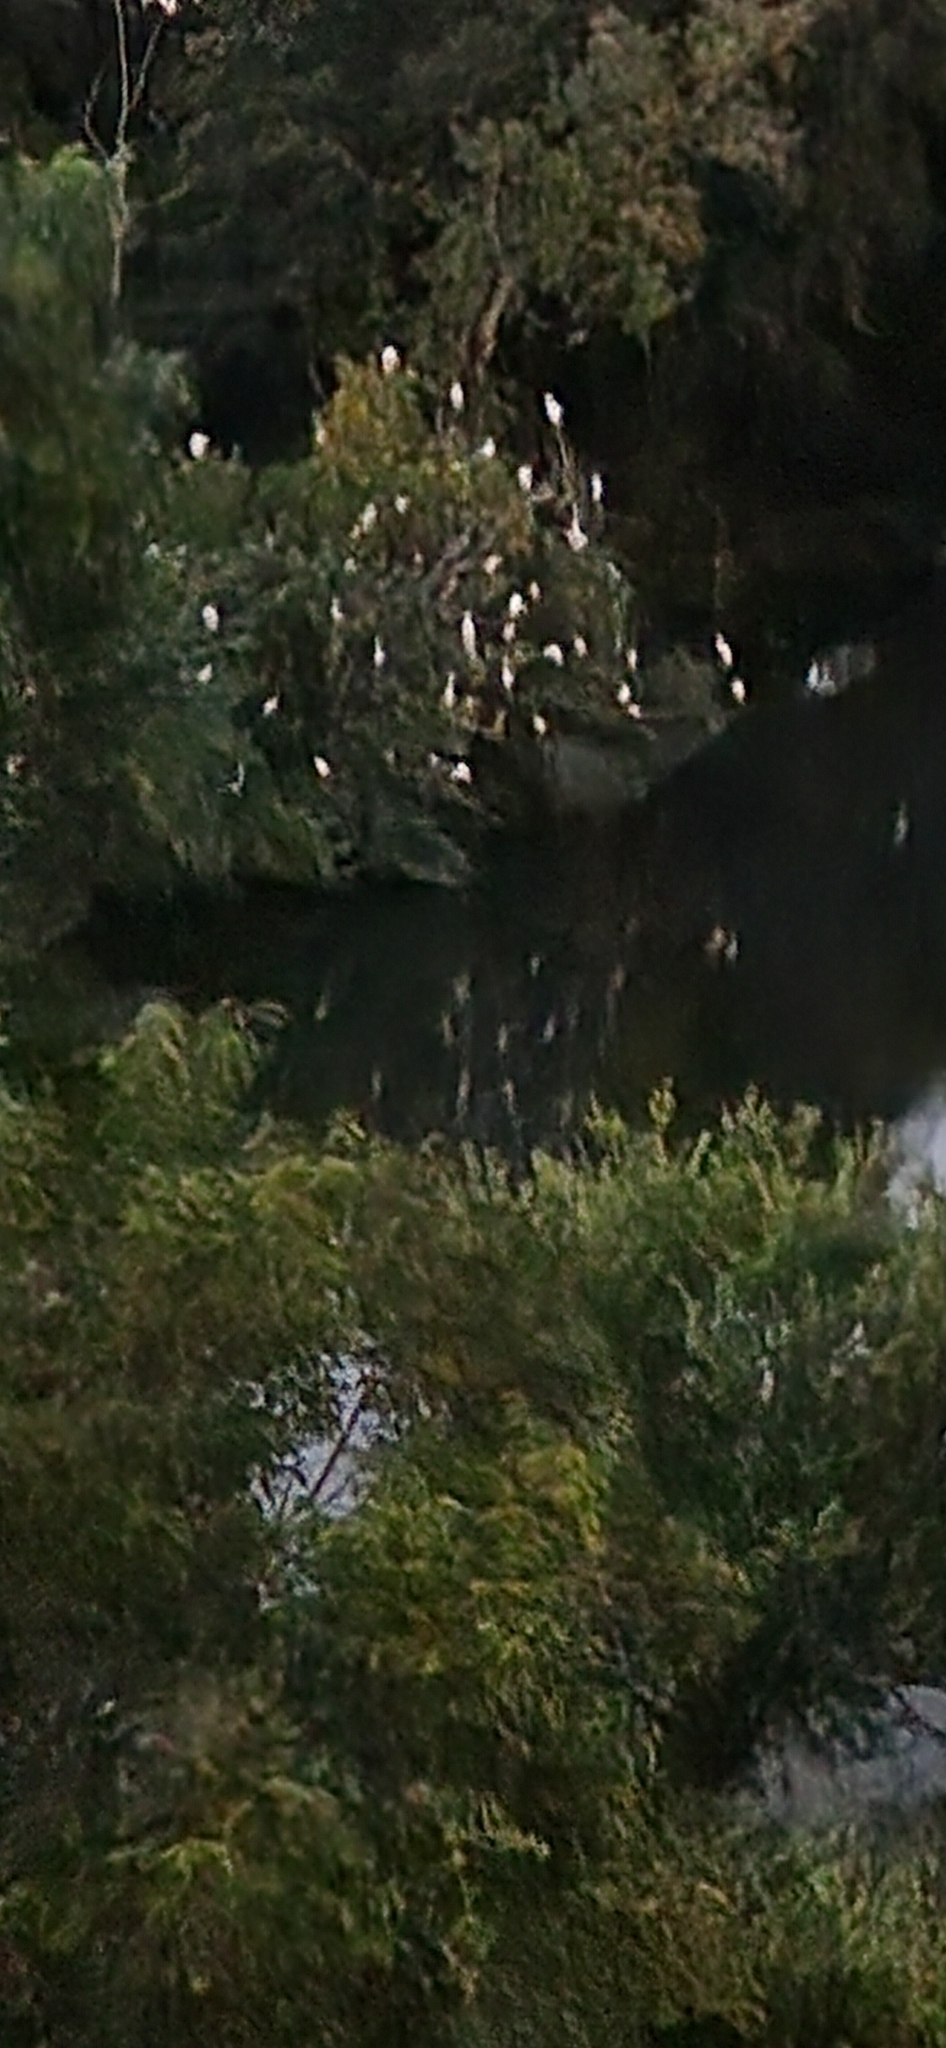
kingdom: Animalia
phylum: Chordata
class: Aves
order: Pelecaniformes
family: Ardeidae
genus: Bubulcus
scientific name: Bubulcus ibis
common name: Cattle egret
